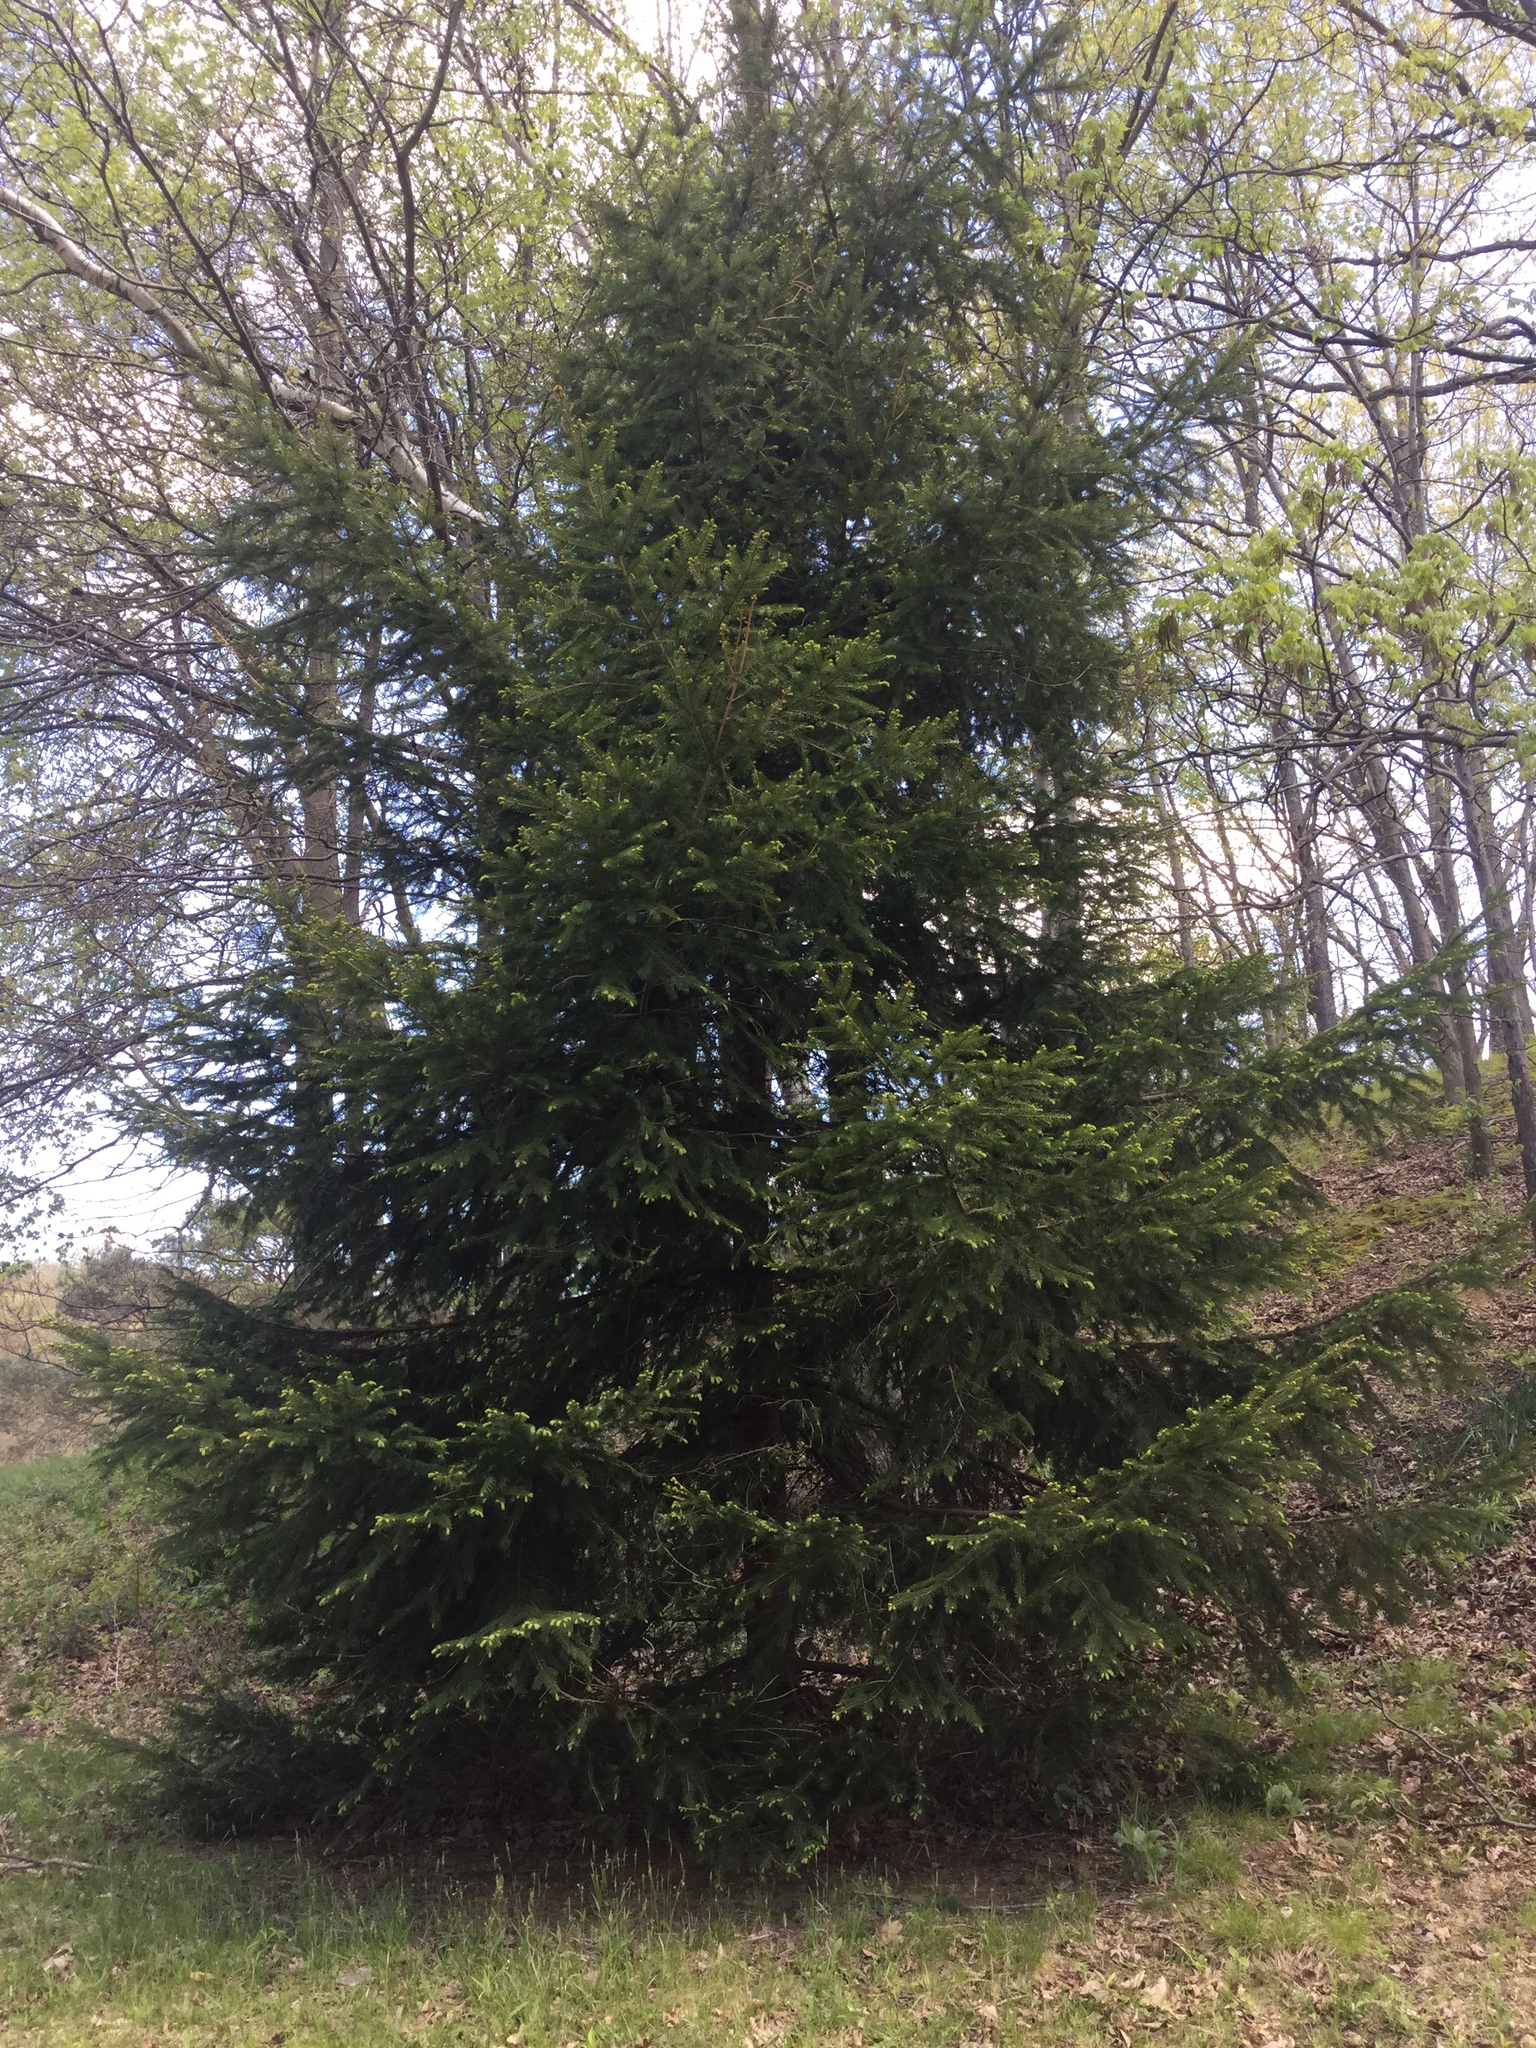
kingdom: Plantae
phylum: Tracheophyta
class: Pinopsida
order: Pinales
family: Pinaceae
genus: Picea
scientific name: Picea abies
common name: Norway spruce
